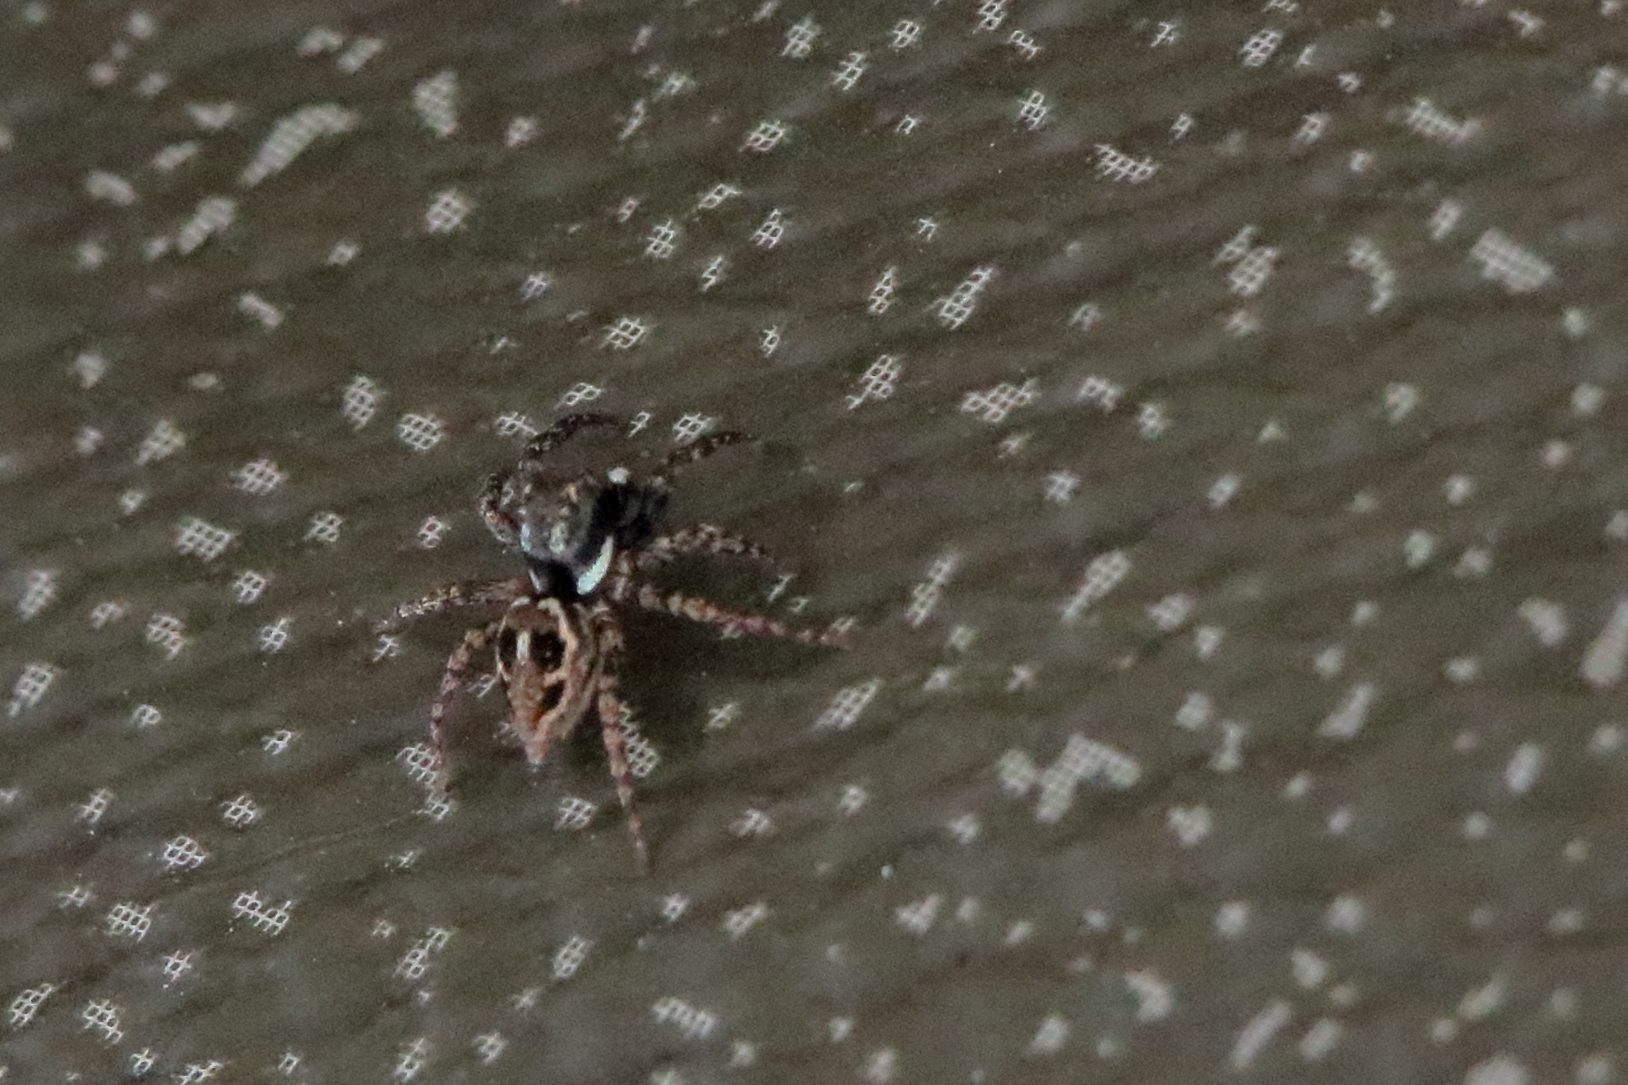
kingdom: Animalia
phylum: Arthropoda
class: Arachnida
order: Araneae
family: Salticidae
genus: Anasaitis
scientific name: Anasaitis canosa
